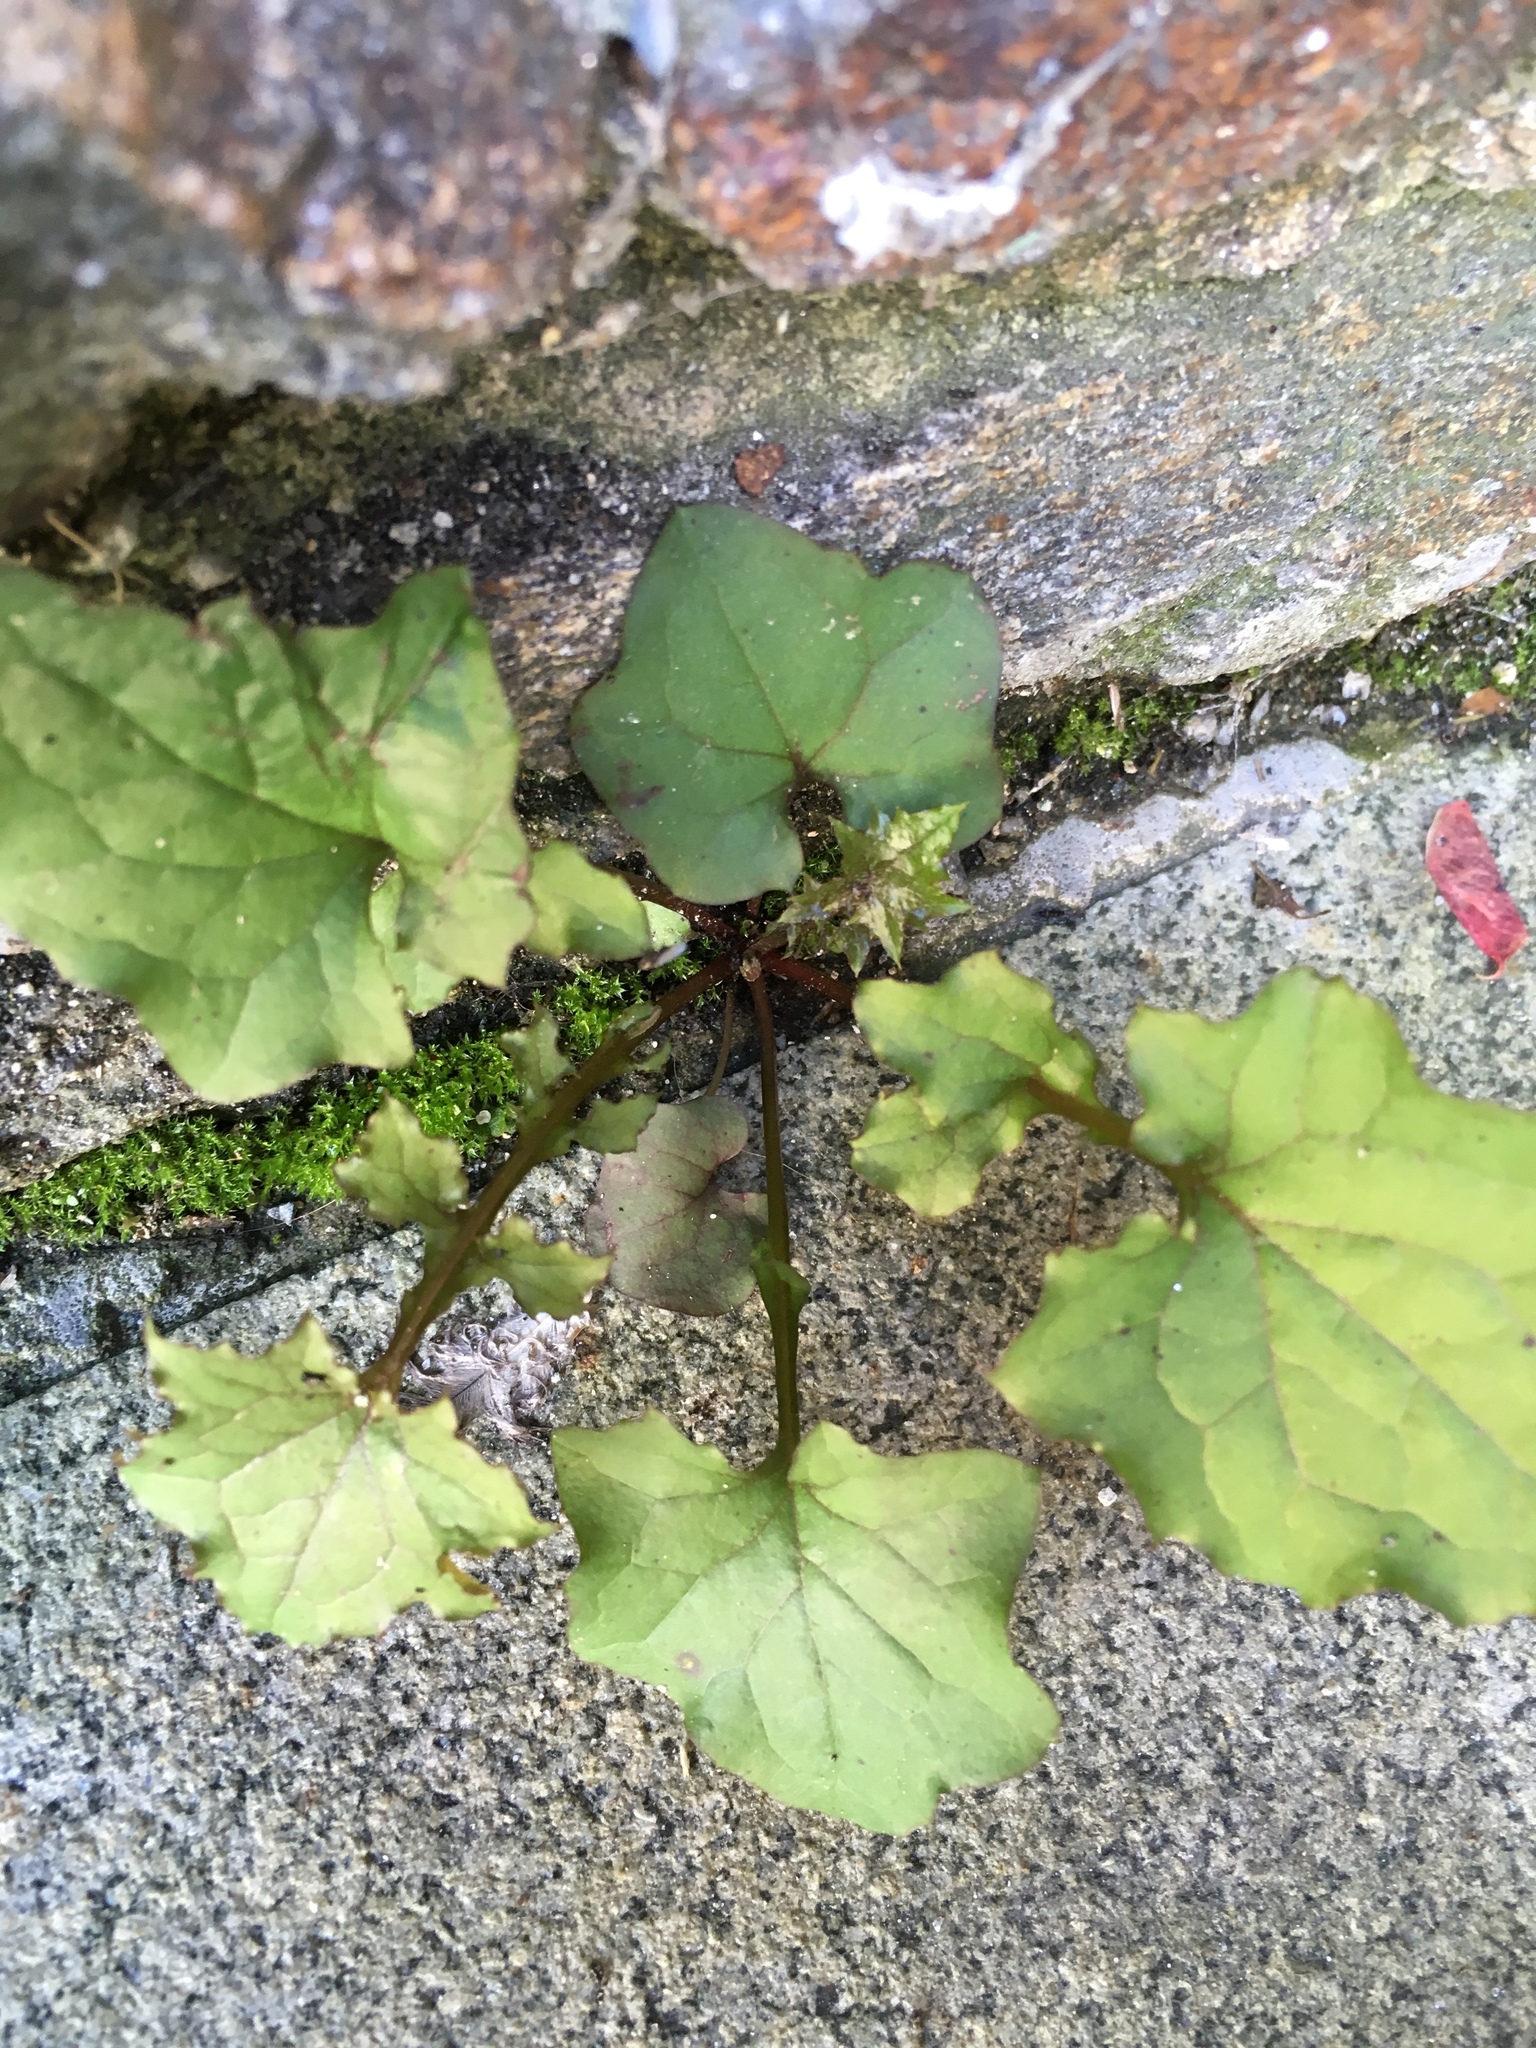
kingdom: Plantae
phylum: Tracheophyta
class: Magnoliopsida
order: Asterales
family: Asteraceae
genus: Mycelis
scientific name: Mycelis muralis
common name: Wall lettuce
